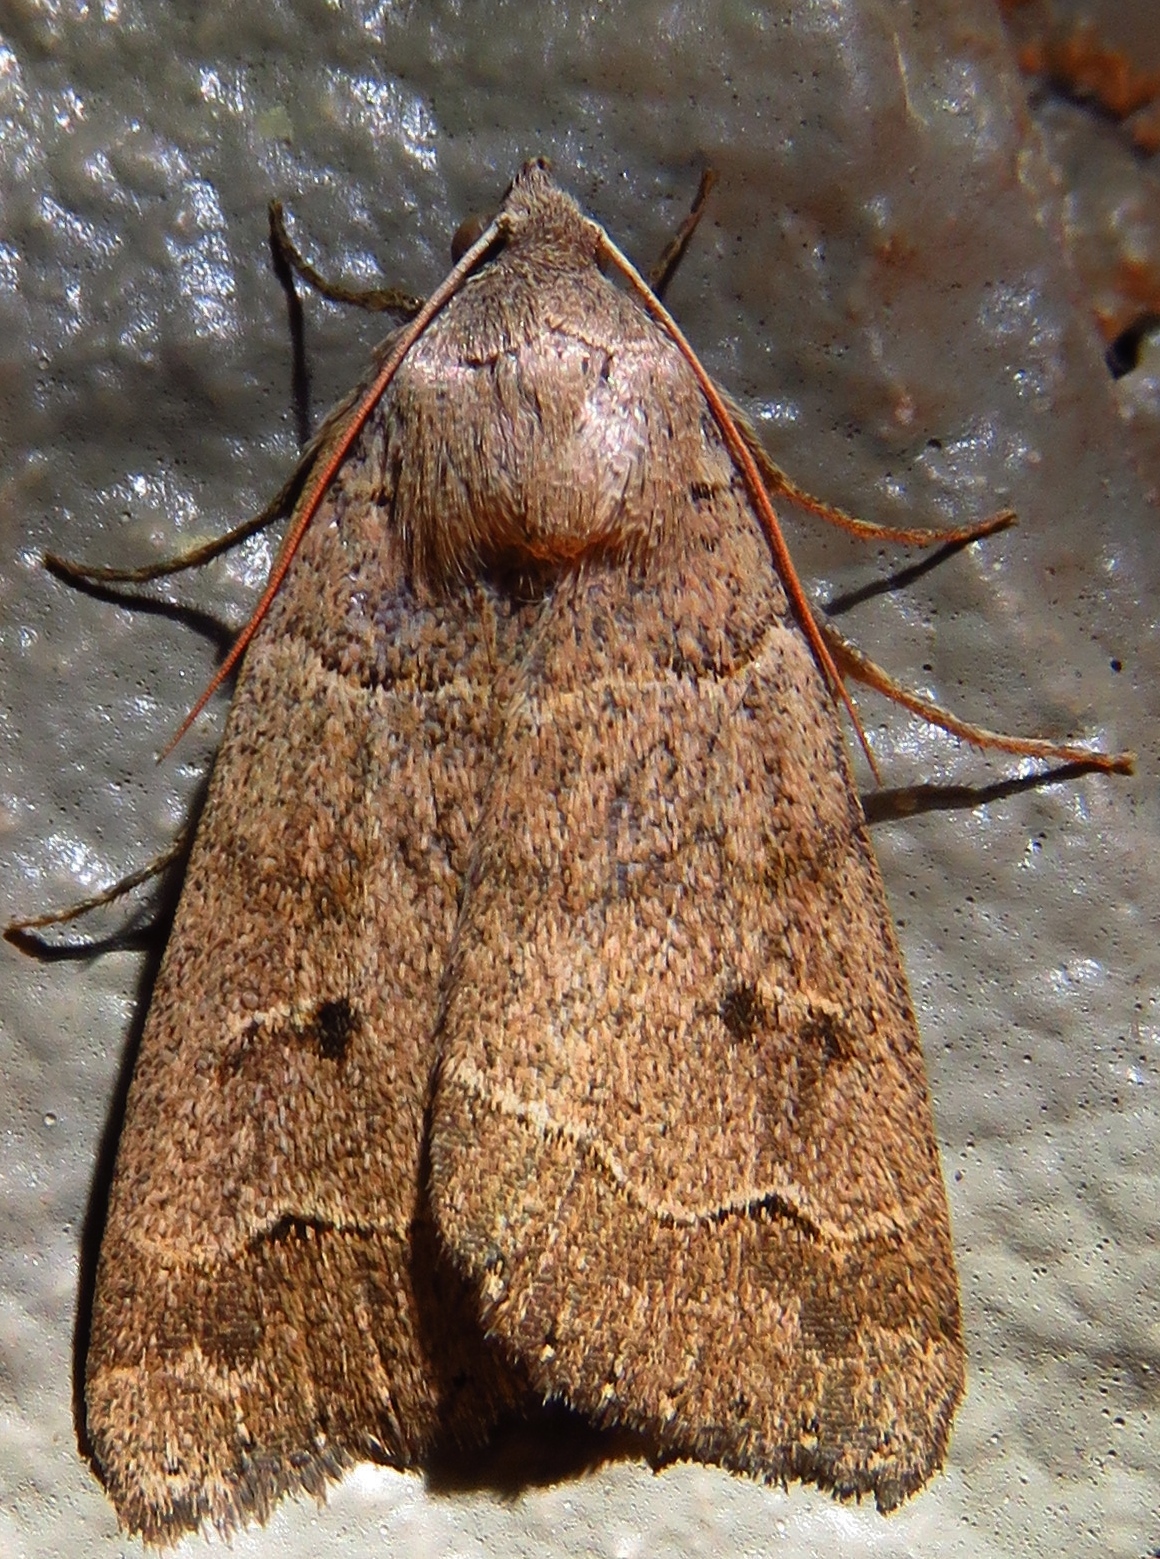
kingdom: Animalia
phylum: Arthropoda
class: Insecta
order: Lepidoptera
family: Erebidae
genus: Phoberia
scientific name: Phoberia atomaris
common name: Common oak moth
